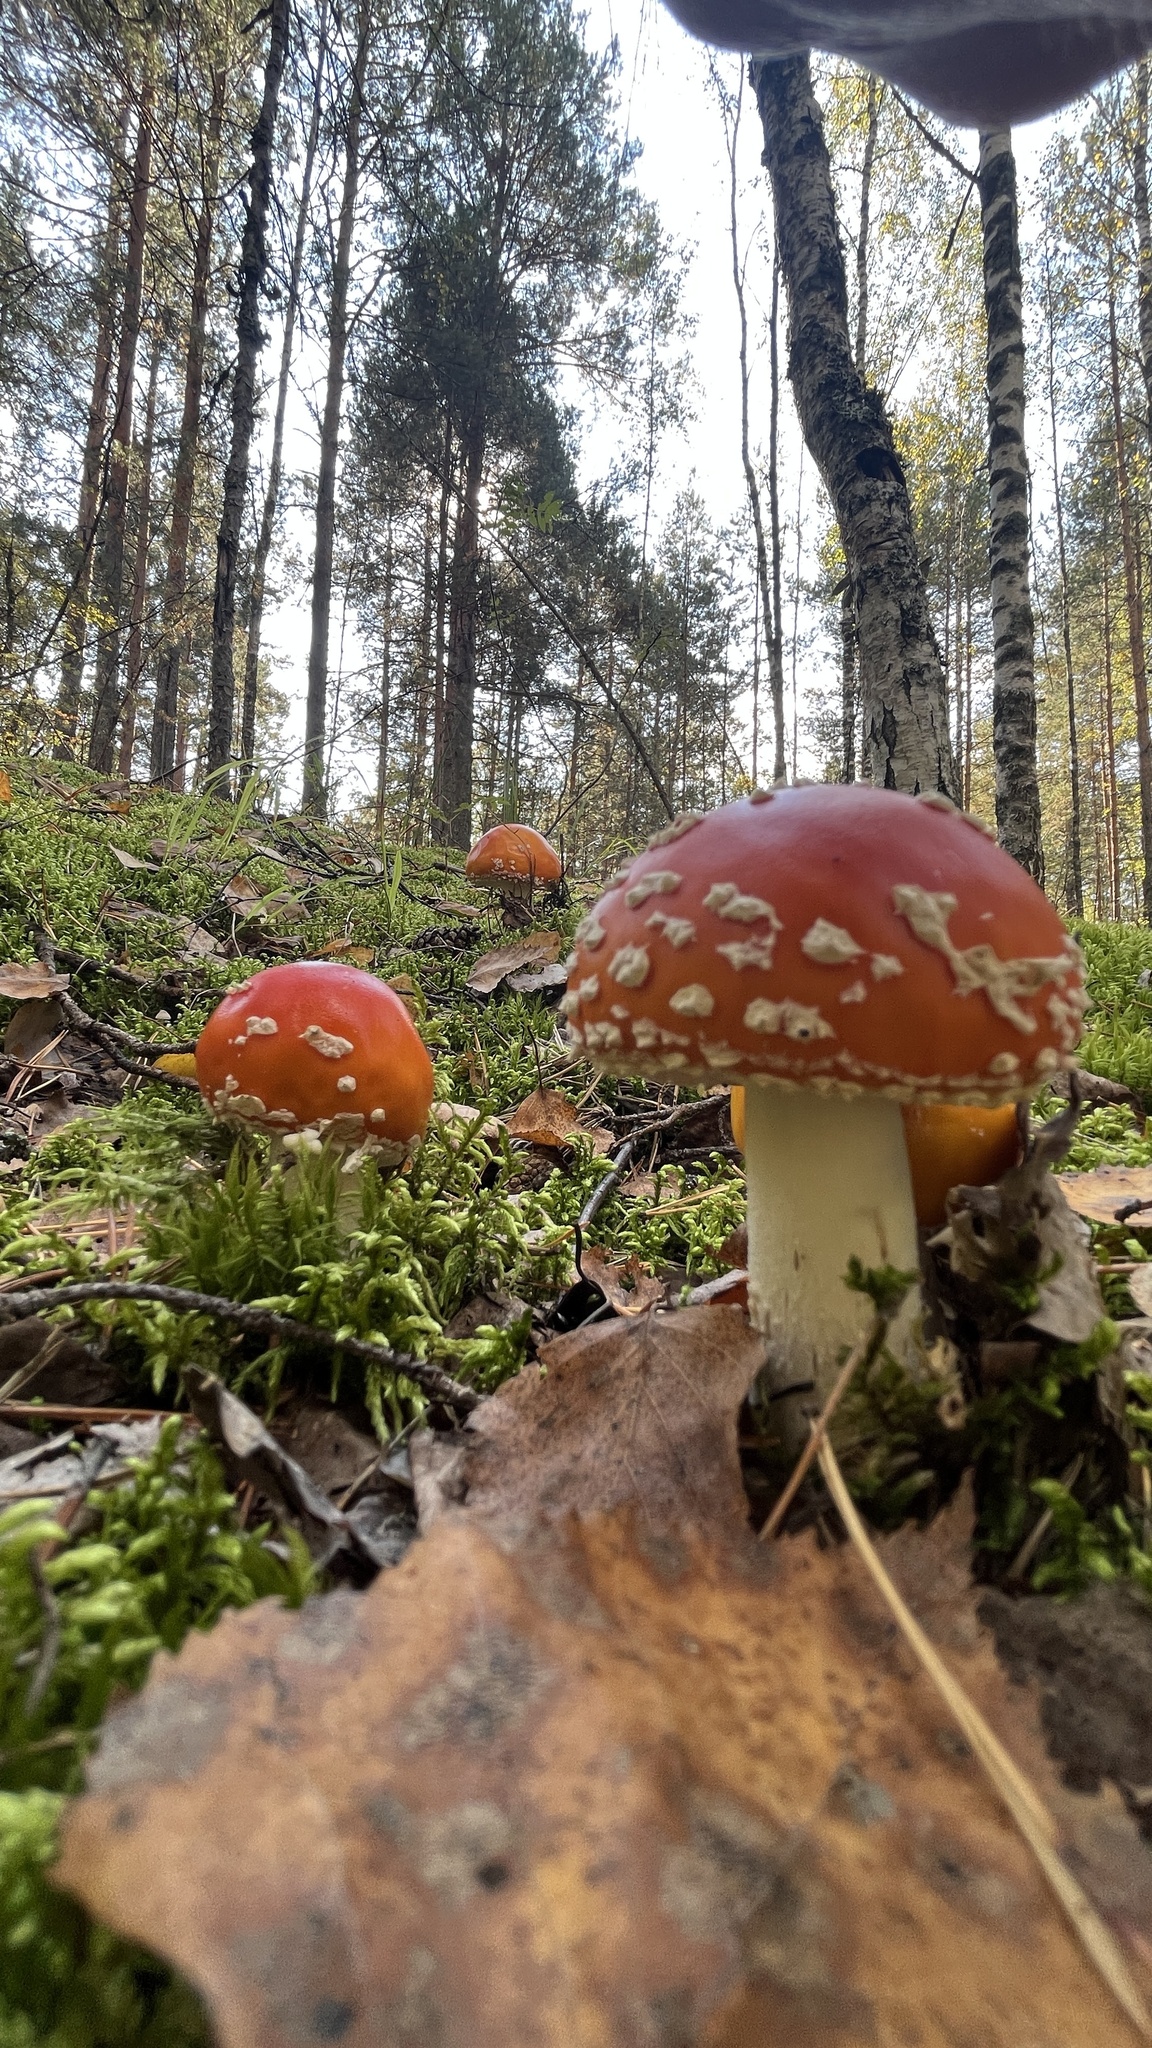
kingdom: Fungi
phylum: Basidiomycota
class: Agaricomycetes
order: Agaricales
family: Amanitaceae
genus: Amanita
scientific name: Amanita muscaria
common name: Fly agaric
